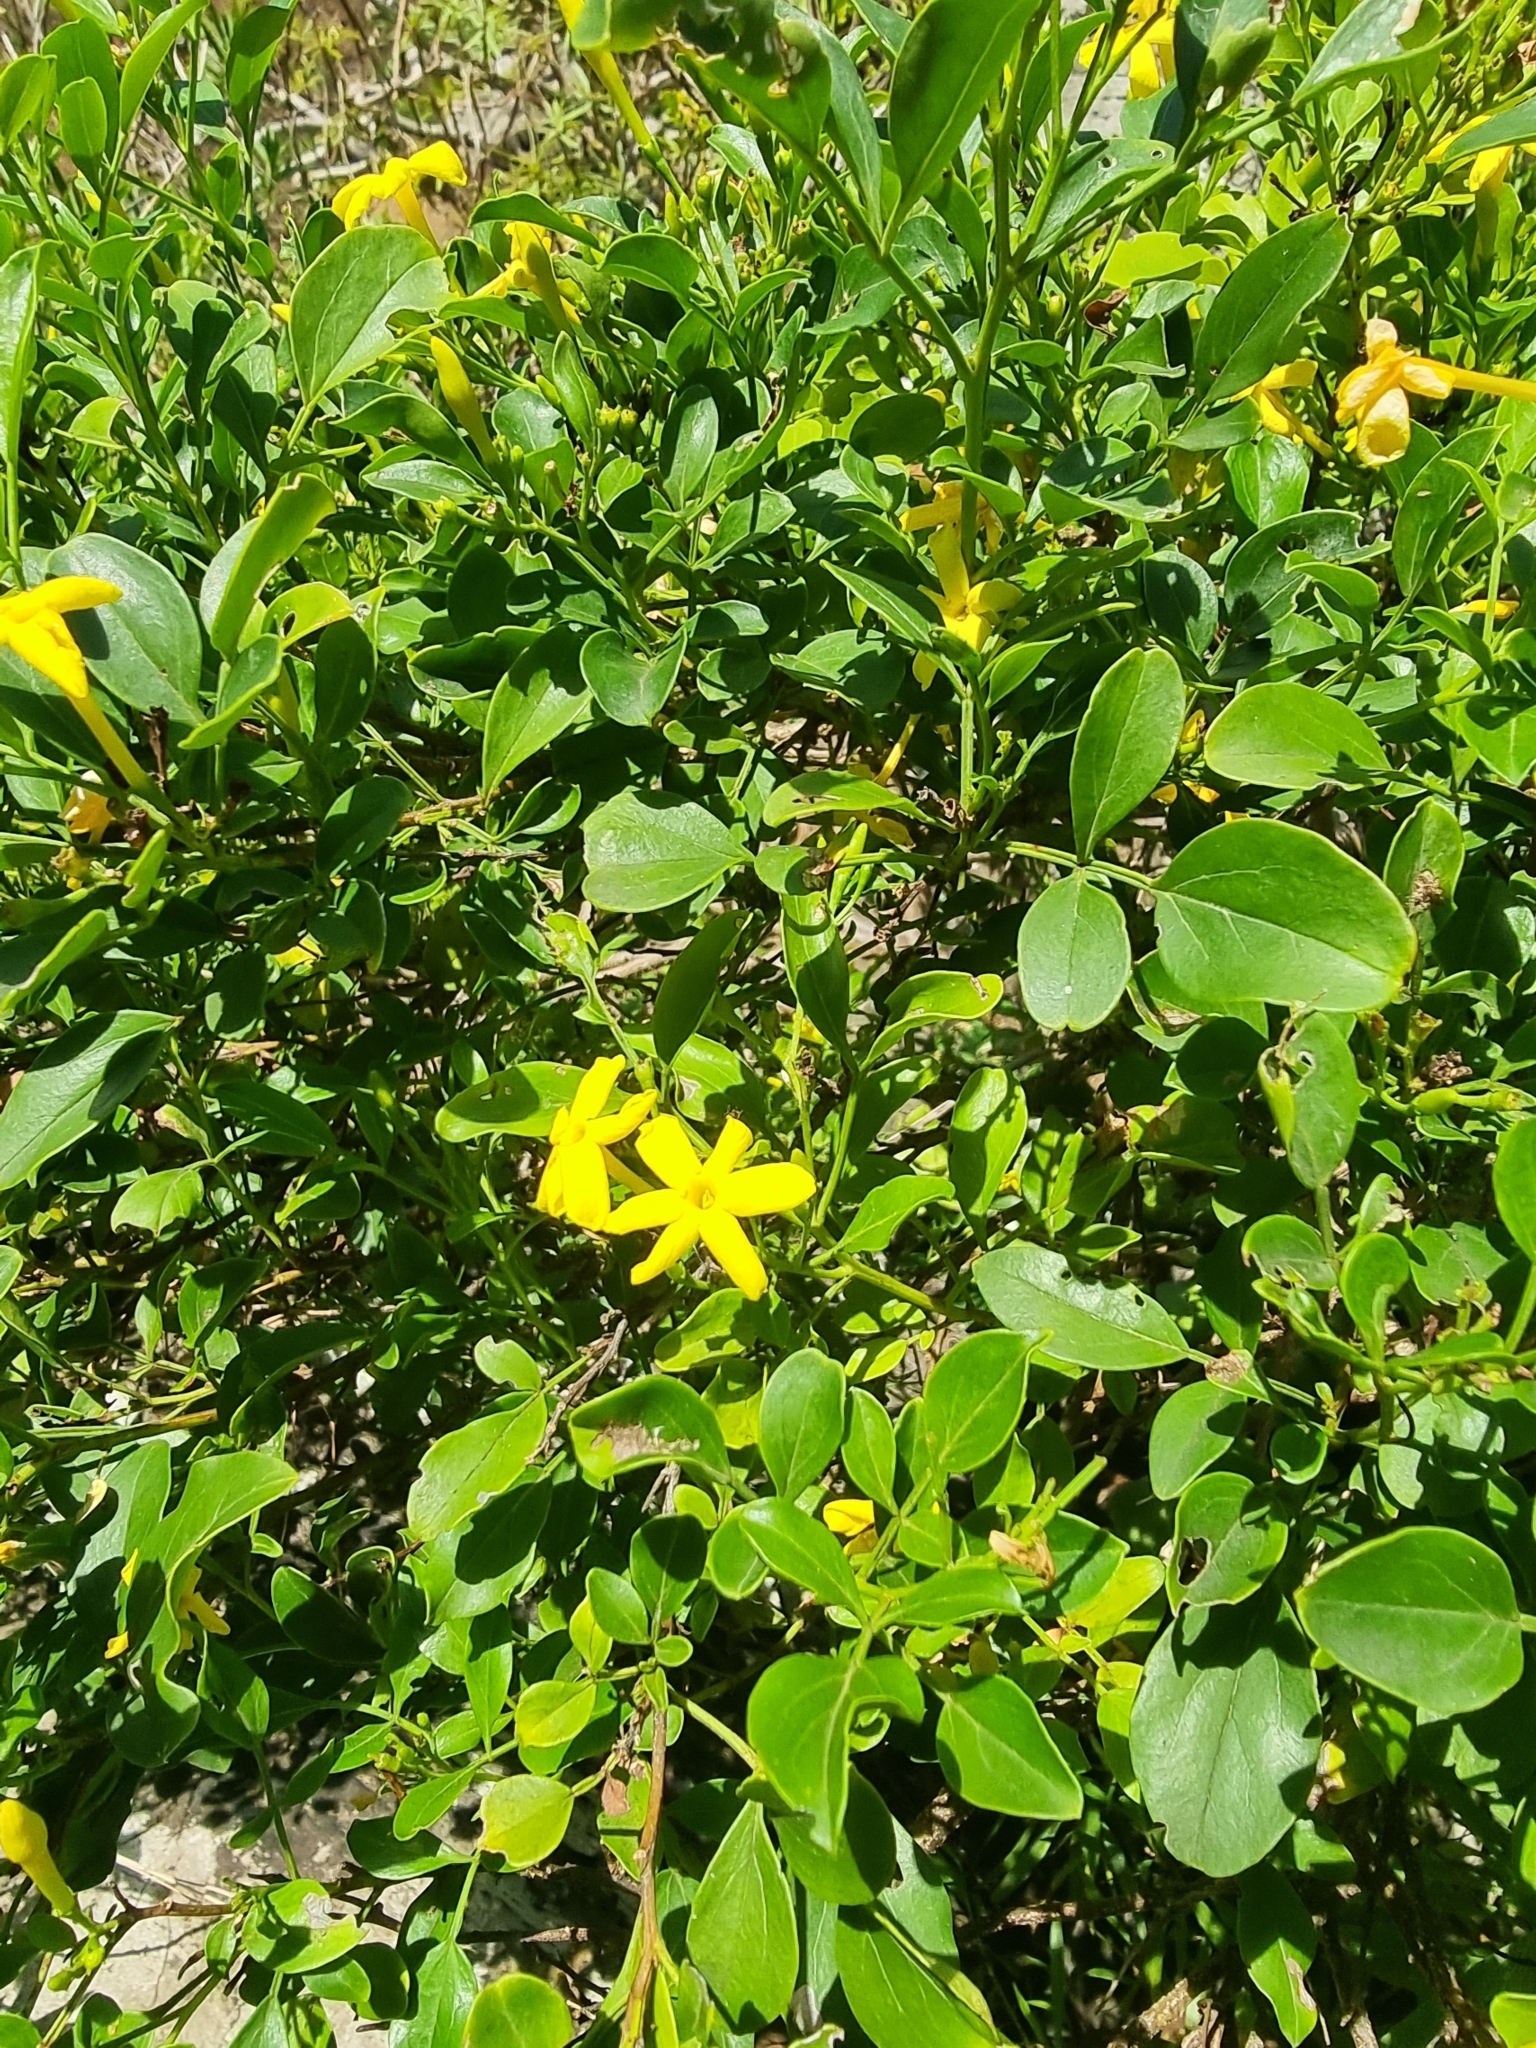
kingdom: Plantae
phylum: Tracheophyta
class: Magnoliopsida
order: Lamiales
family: Oleaceae
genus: Chrysojasminum
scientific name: Chrysojasminum odoratissimum
